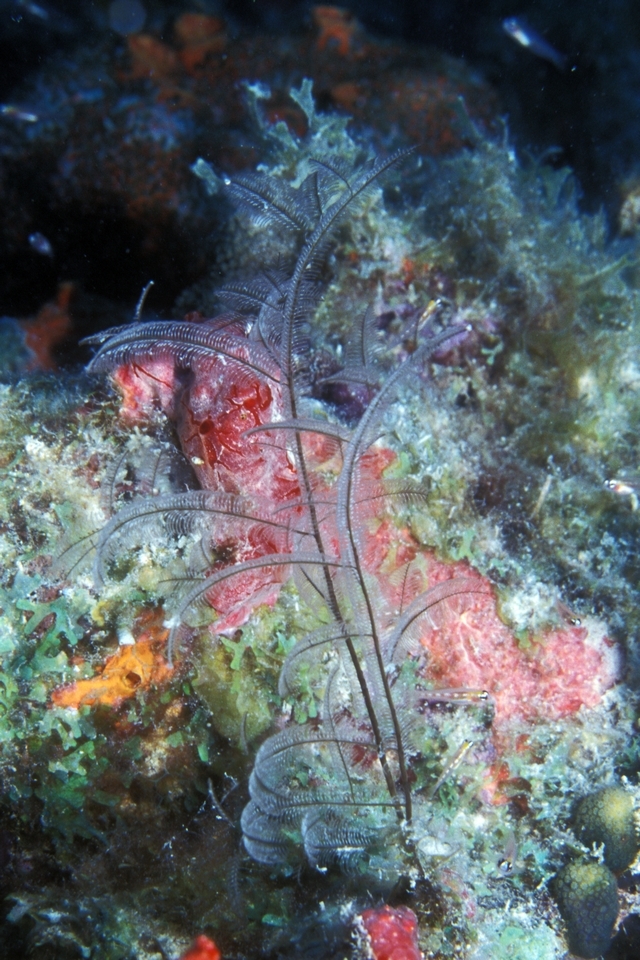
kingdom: Animalia
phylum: Cnidaria
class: Hydrozoa
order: Leptothecata
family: Aglaopheniidae
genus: Macrorhynchia
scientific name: Macrorhynchia philippina
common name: Stinging hydroid
